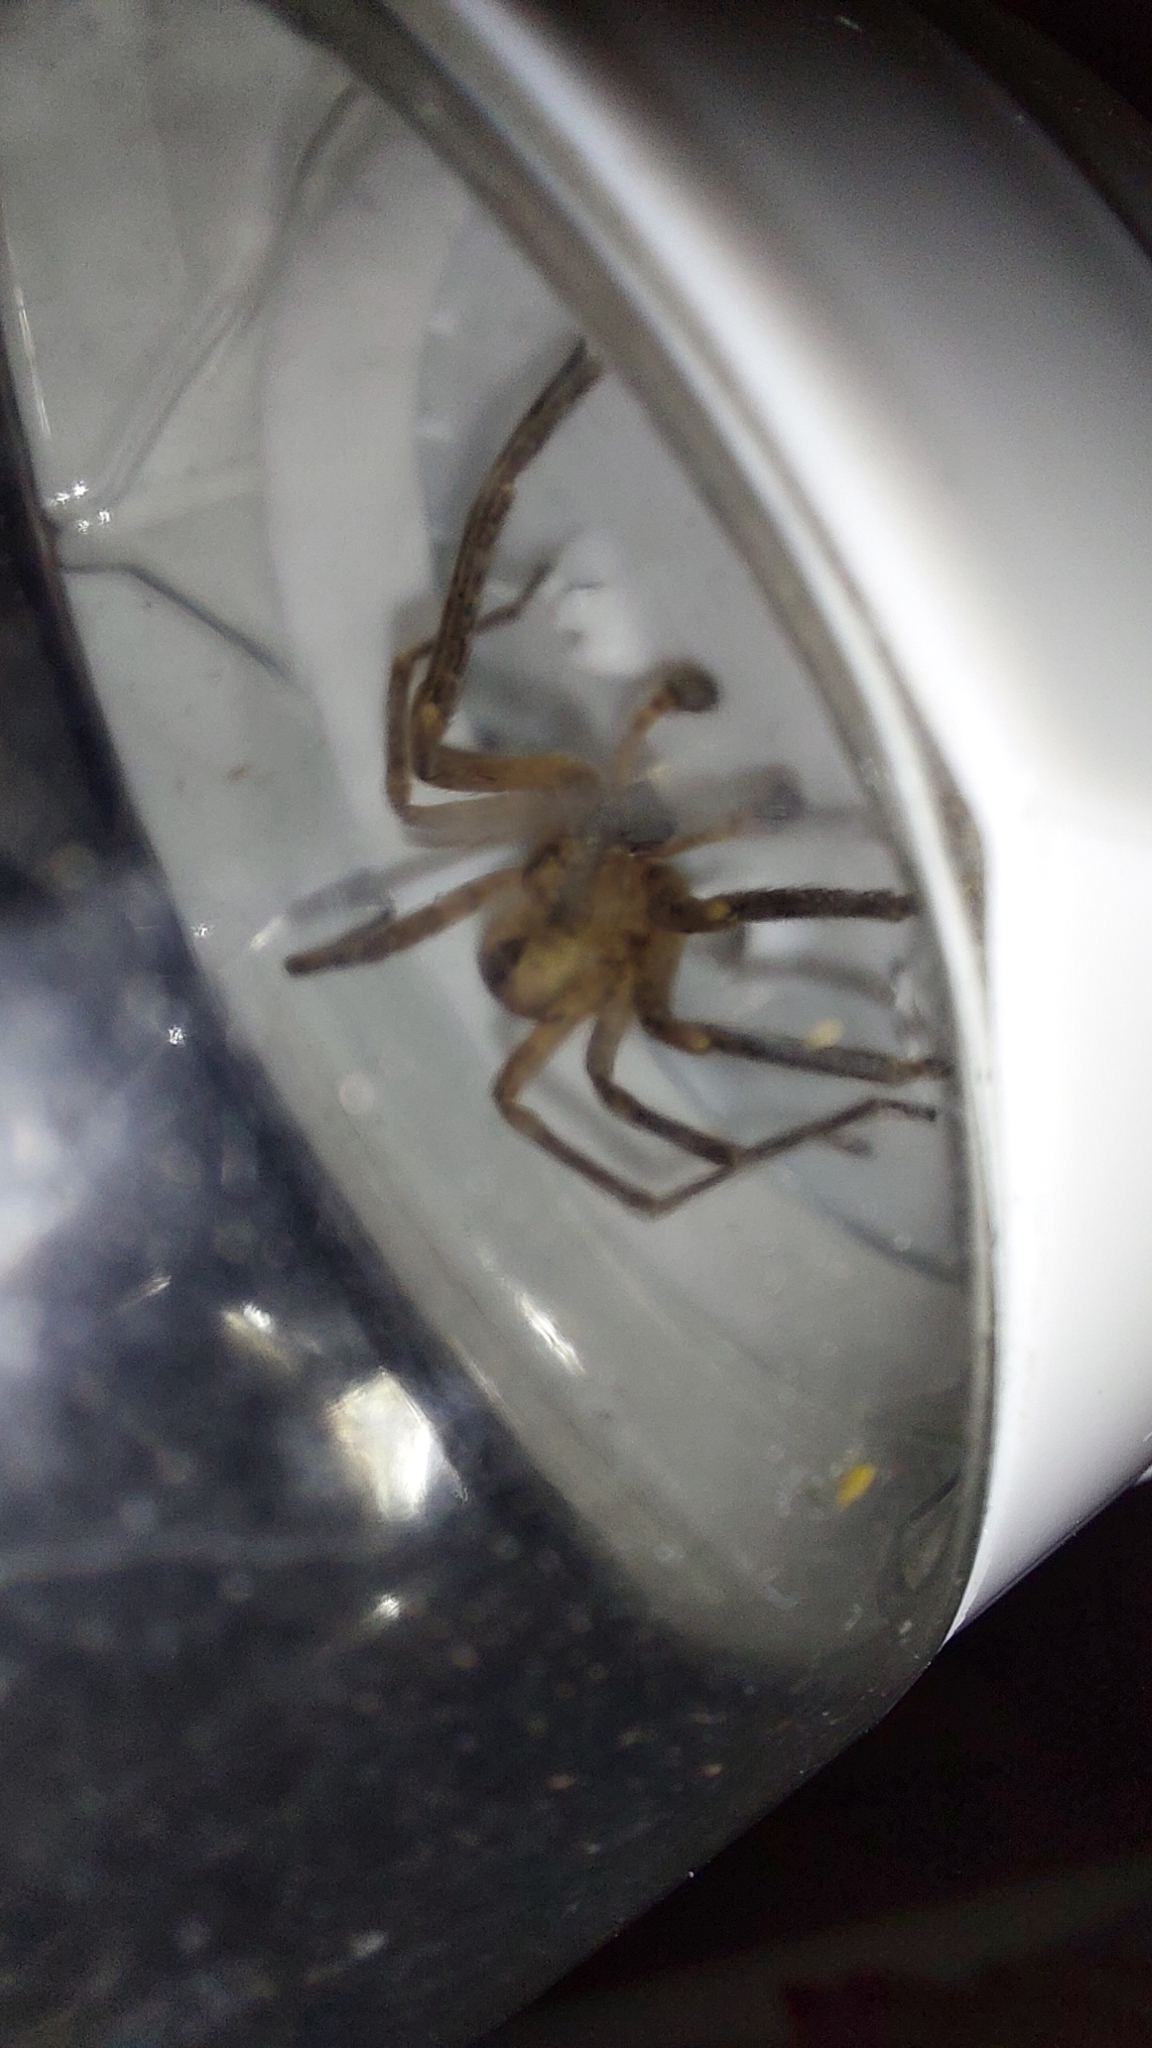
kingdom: Animalia
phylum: Arthropoda
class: Arachnida
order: Araneae
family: Zoropsidae
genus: Zoropsis
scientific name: Zoropsis spinimana
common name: Zoropsid spider
